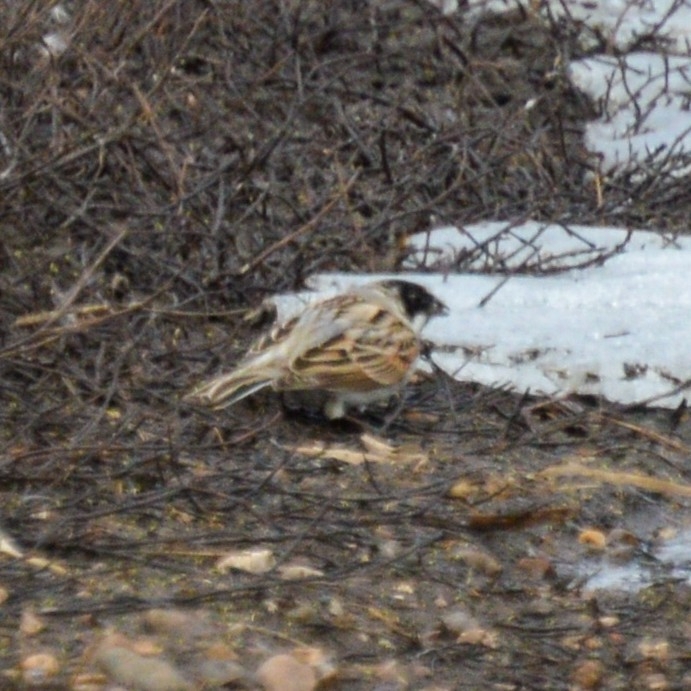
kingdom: Animalia
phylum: Chordata
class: Aves
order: Passeriformes
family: Emberizidae
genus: Emberiza
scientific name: Emberiza schoeniclus
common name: Reed bunting
